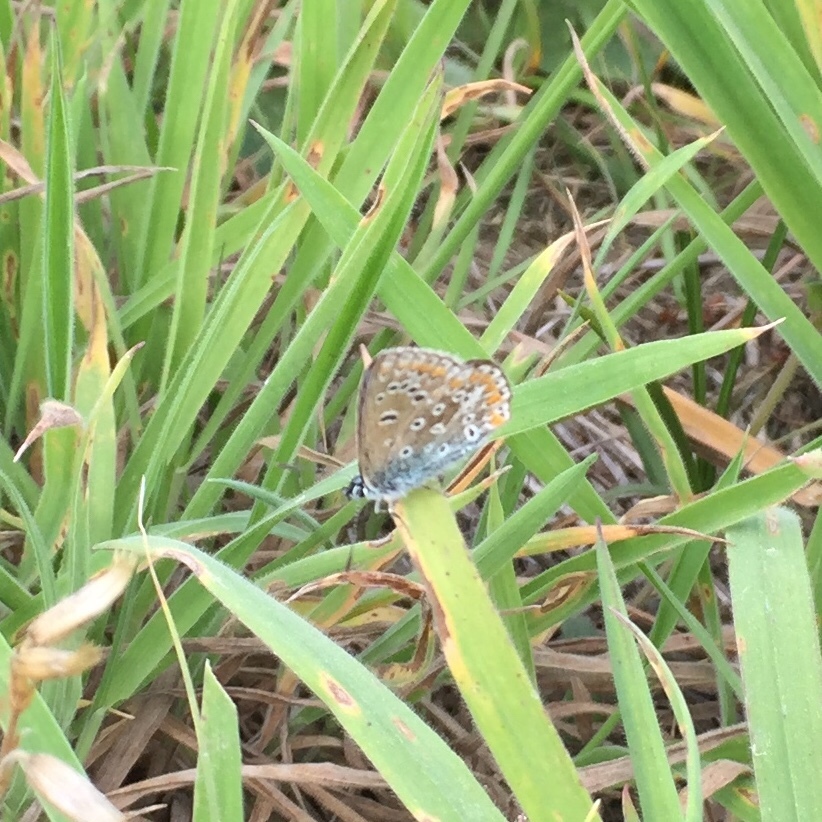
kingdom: Animalia
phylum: Arthropoda
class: Insecta
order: Lepidoptera
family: Lycaenidae
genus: Polyommatus
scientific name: Polyommatus icarus
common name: Common blue
